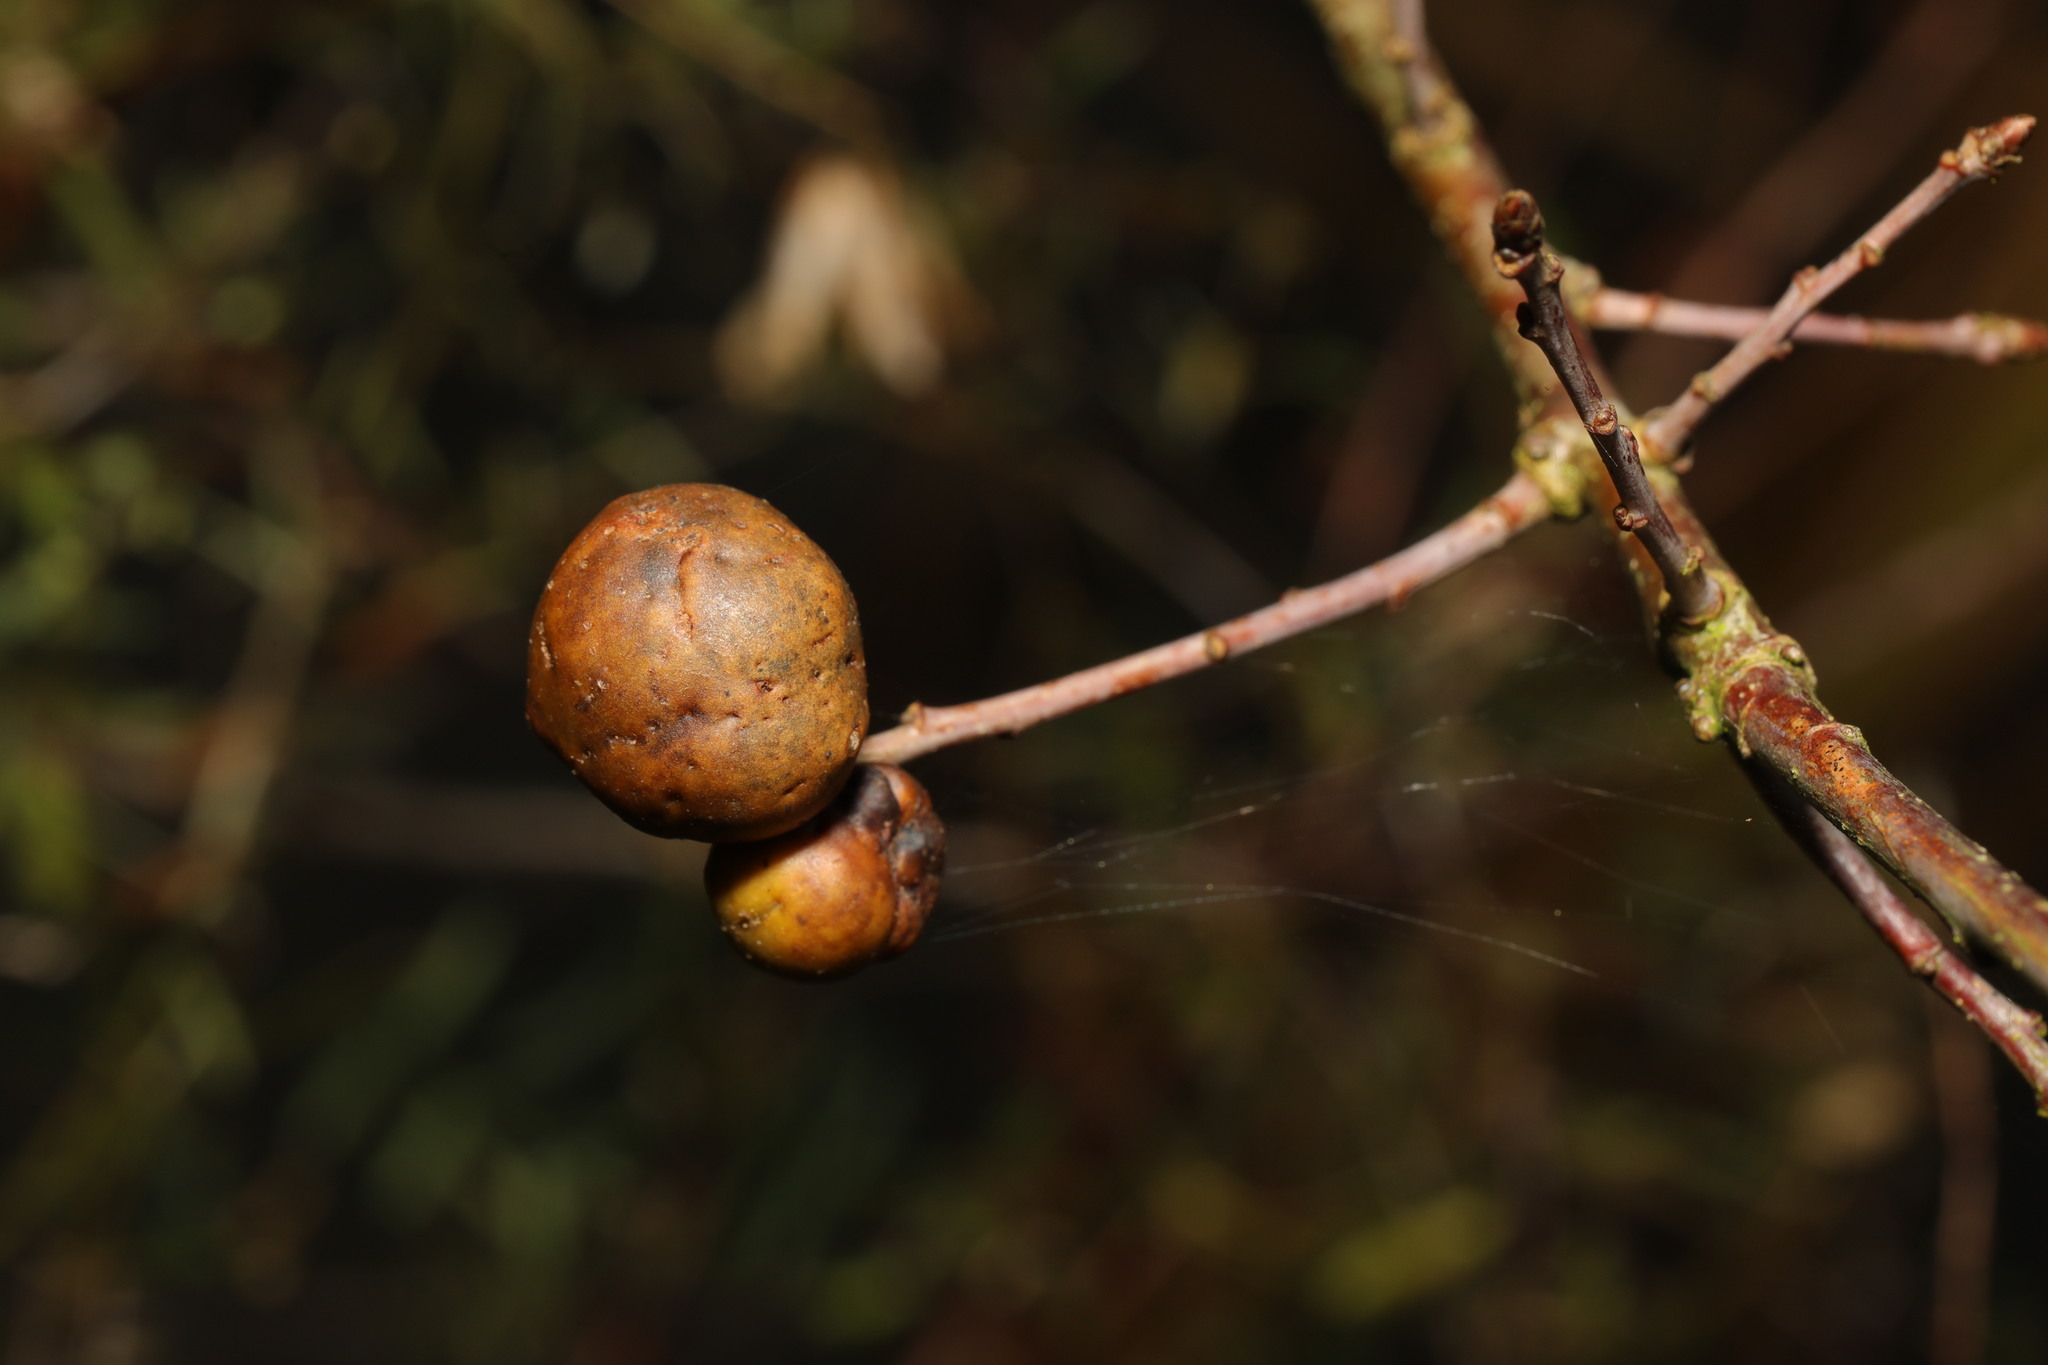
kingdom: Animalia
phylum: Arthropoda
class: Insecta
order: Hymenoptera
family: Cynipidae
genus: Andricus
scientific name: Andricus kollari
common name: Marble gall
